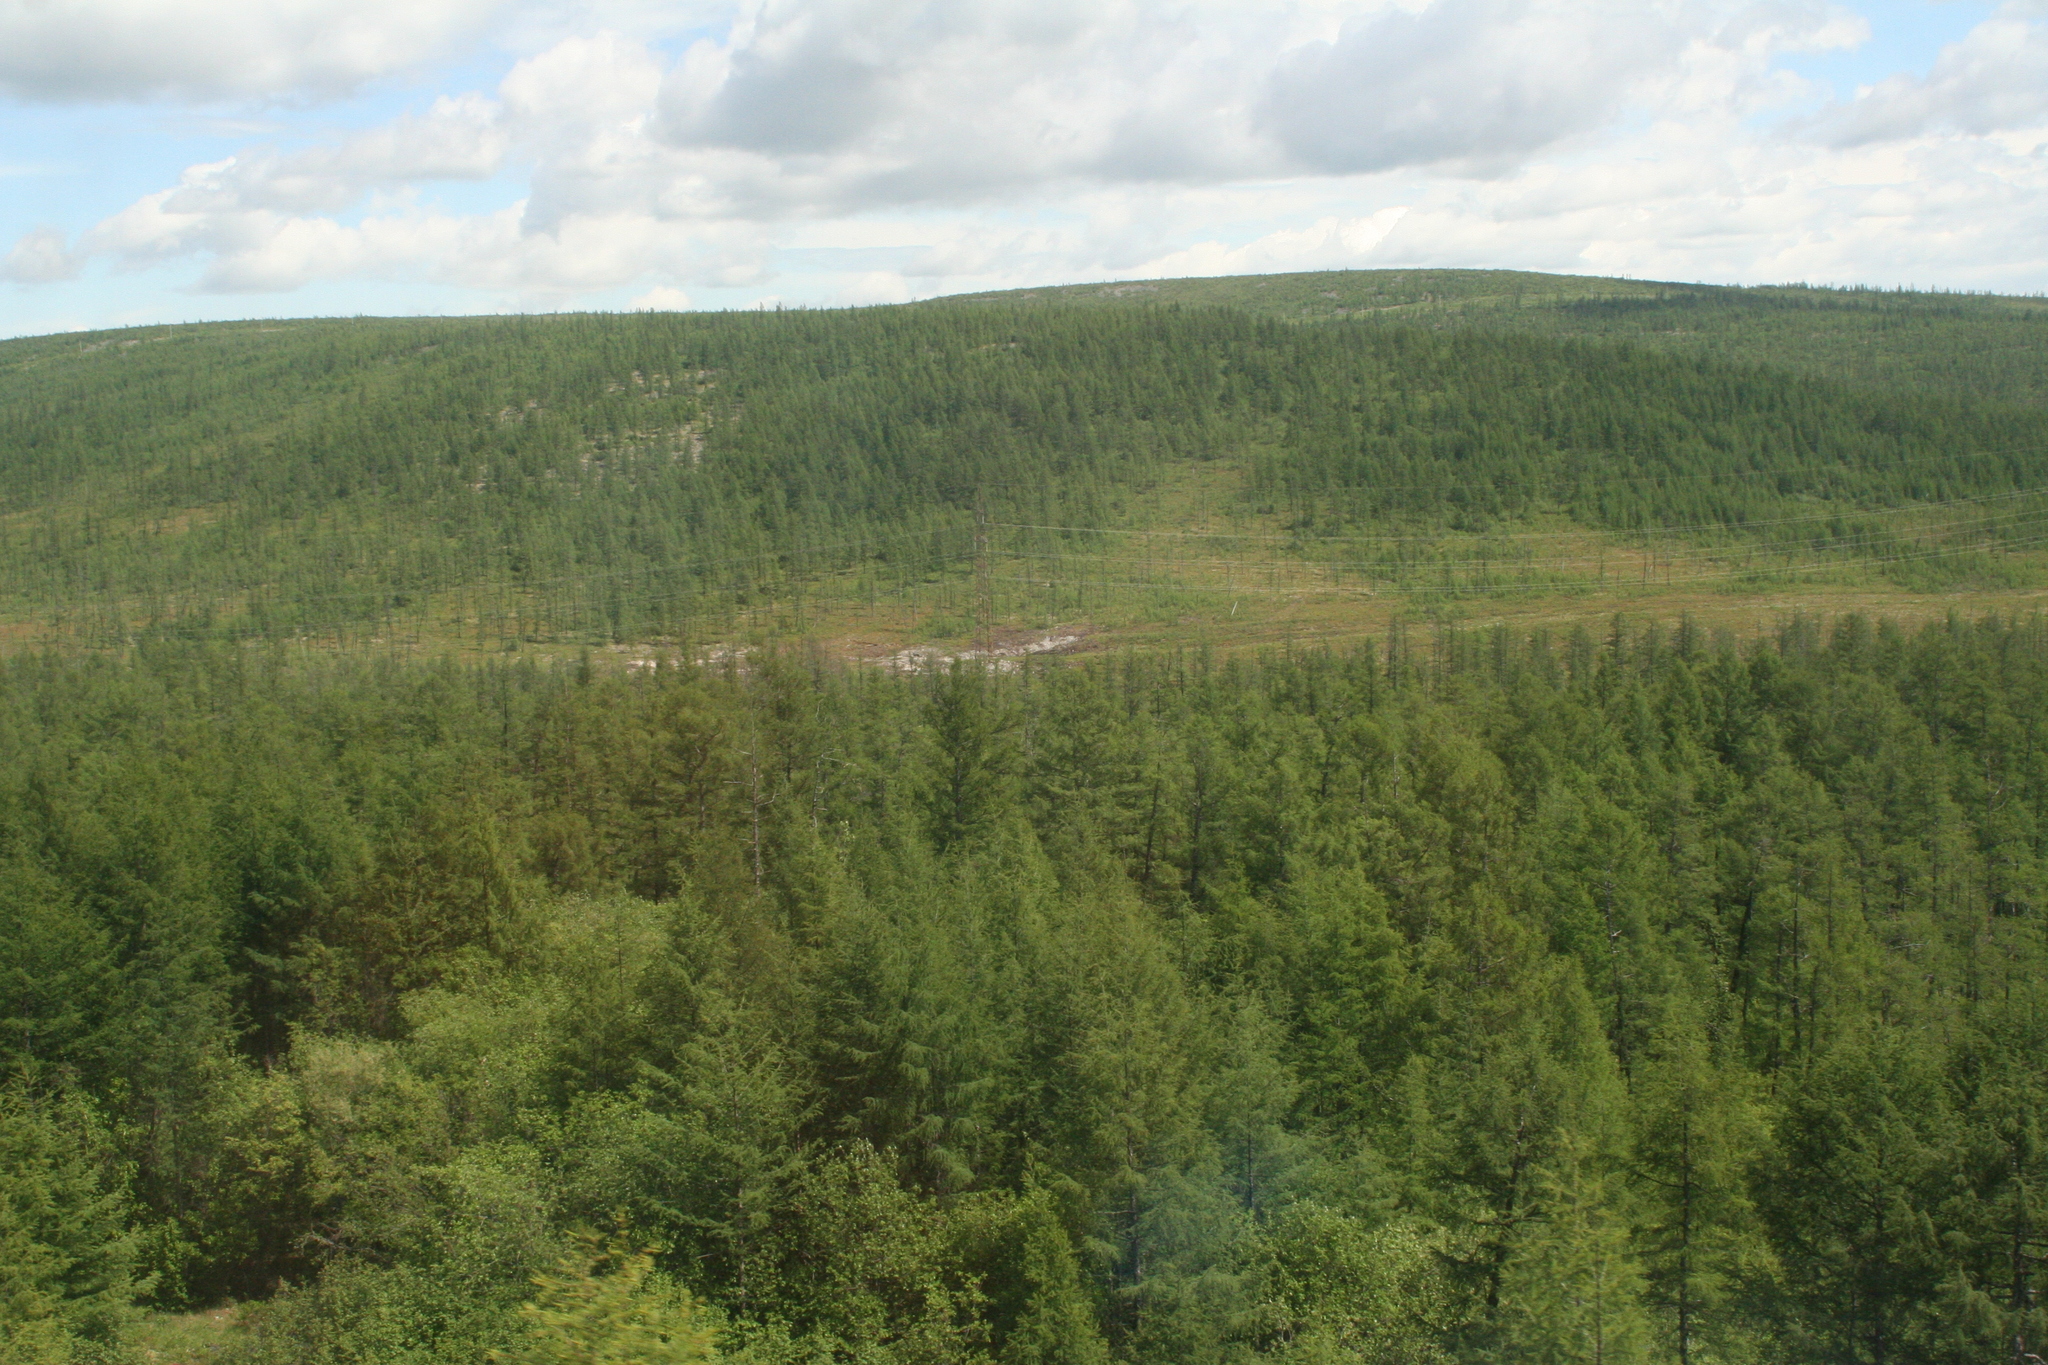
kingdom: Plantae
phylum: Tracheophyta
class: Pinopsida
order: Pinales
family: Pinaceae
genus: Larix
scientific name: Larix gmelinii
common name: Dahurian larch
